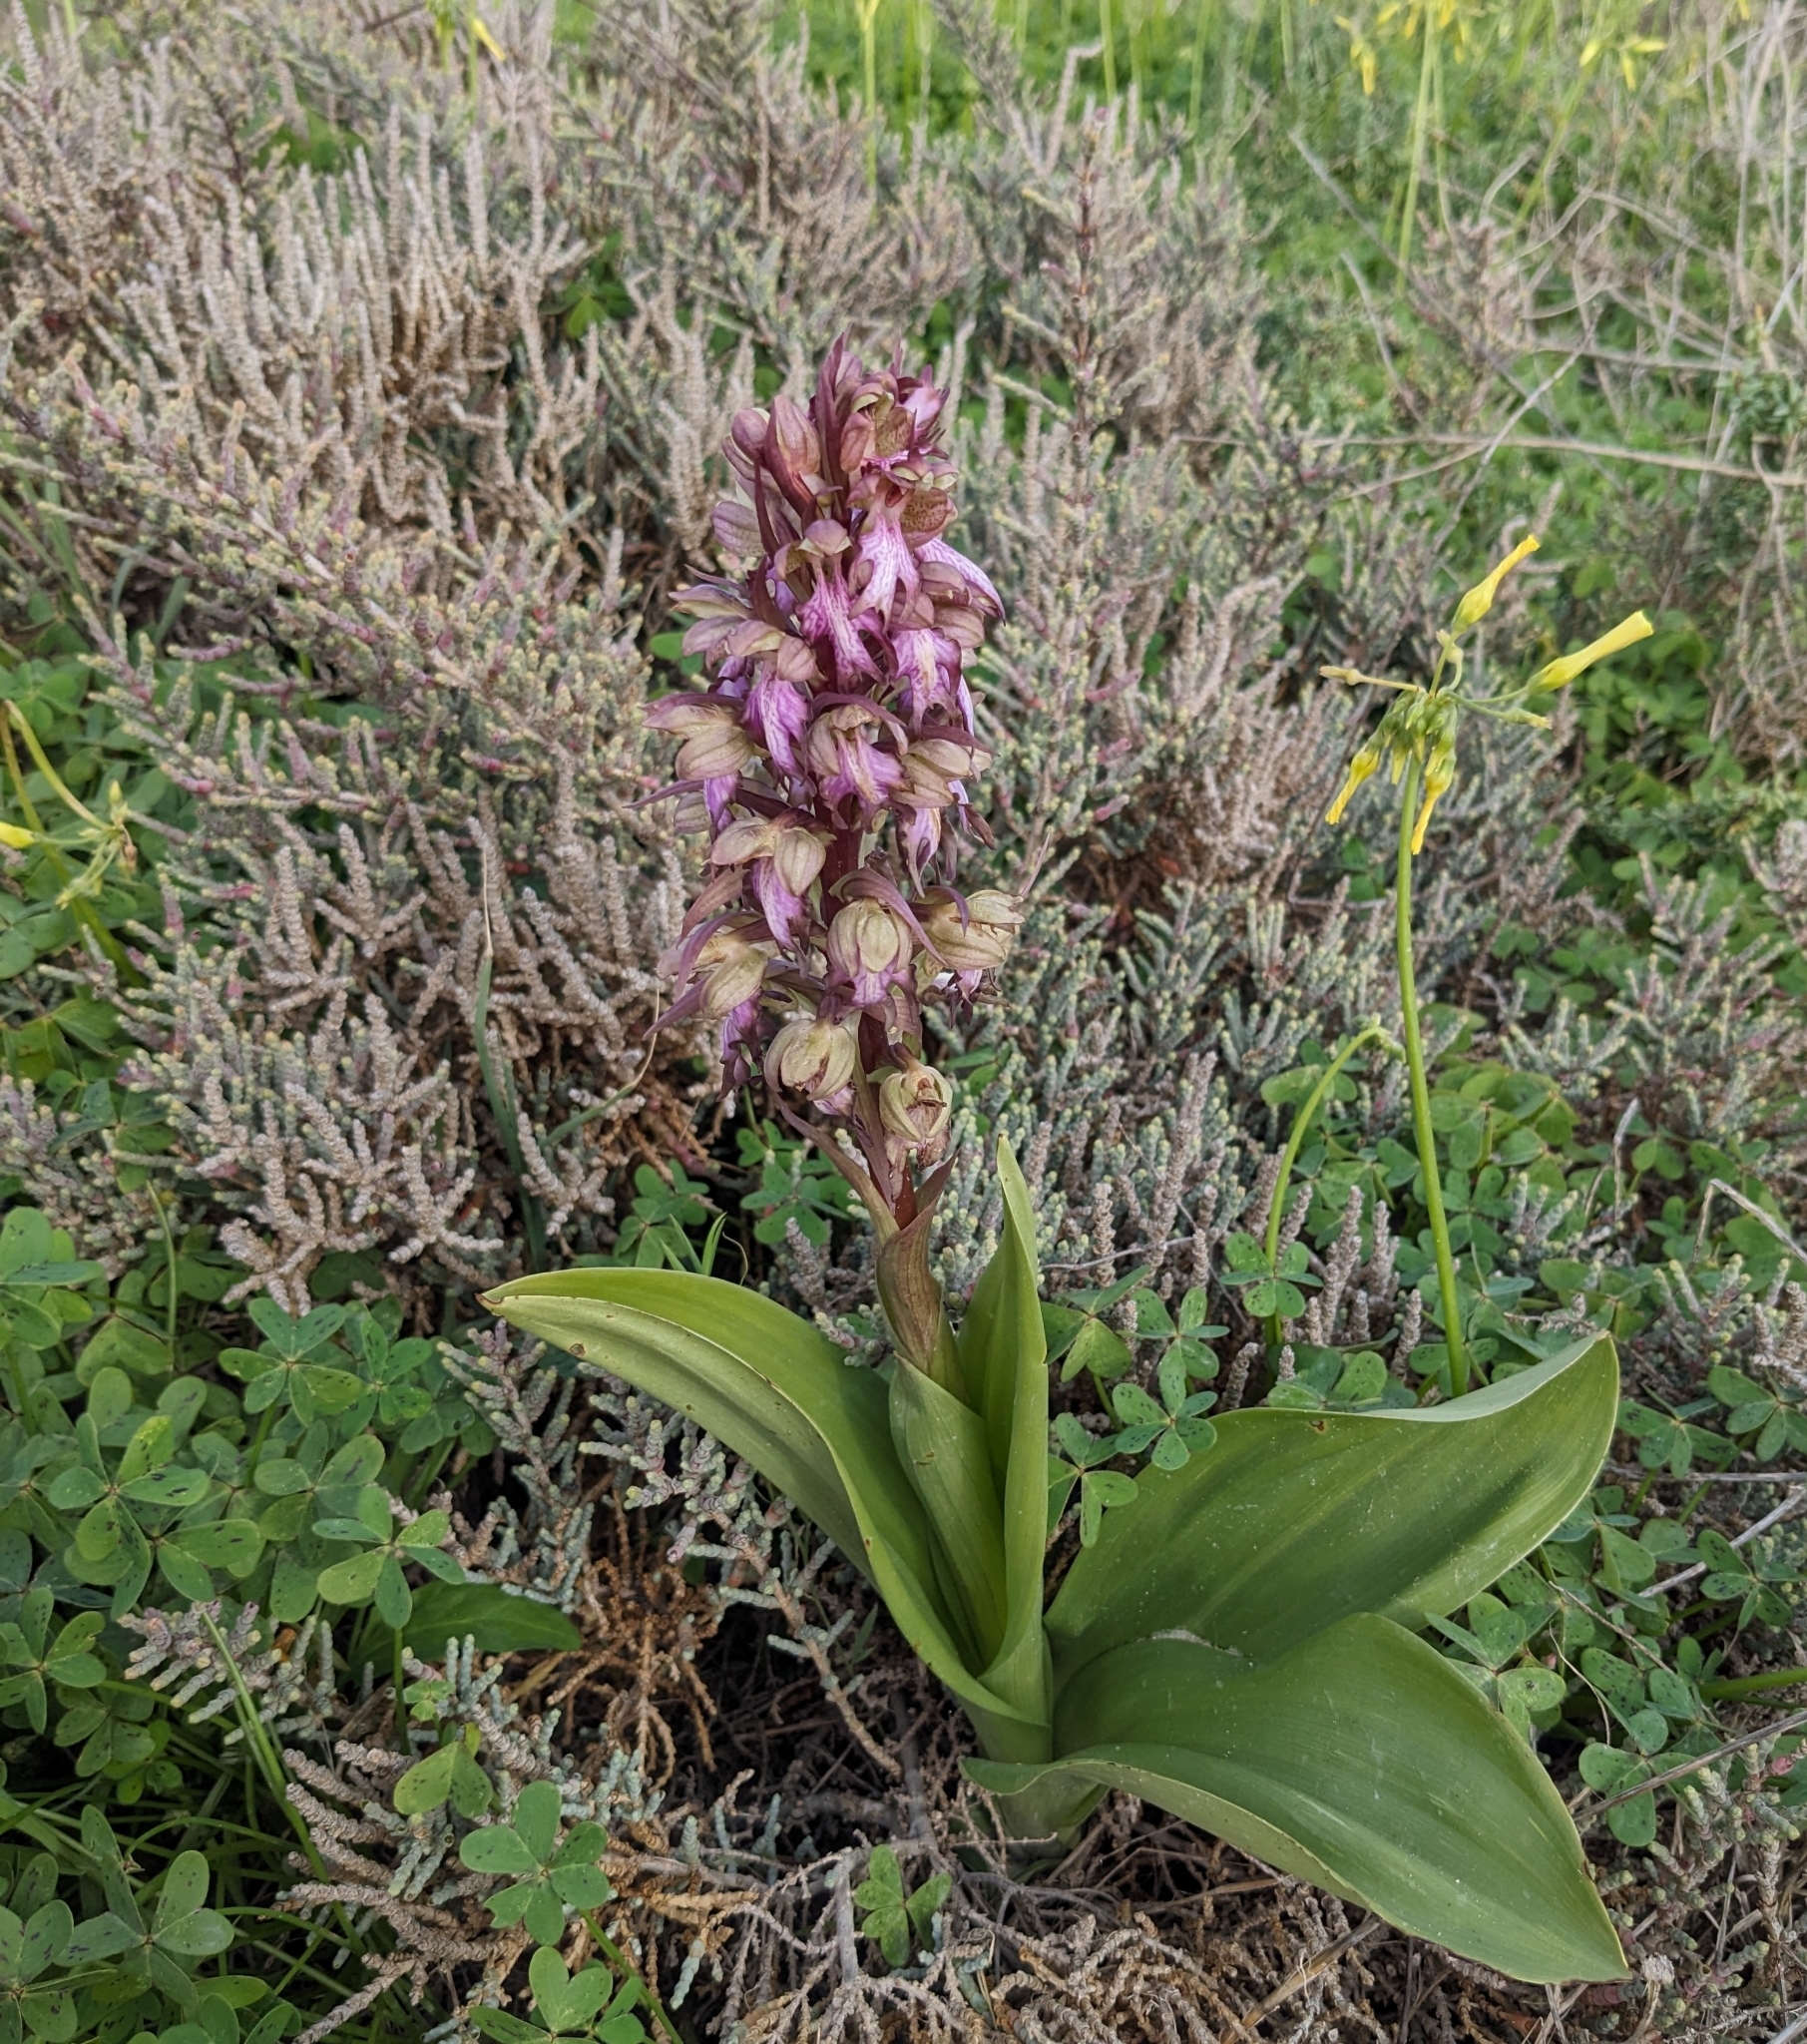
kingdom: Plantae
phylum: Tracheophyta
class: Liliopsida
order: Asparagales
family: Orchidaceae
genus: Himantoglossum
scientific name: Himantoglossum robertianum
